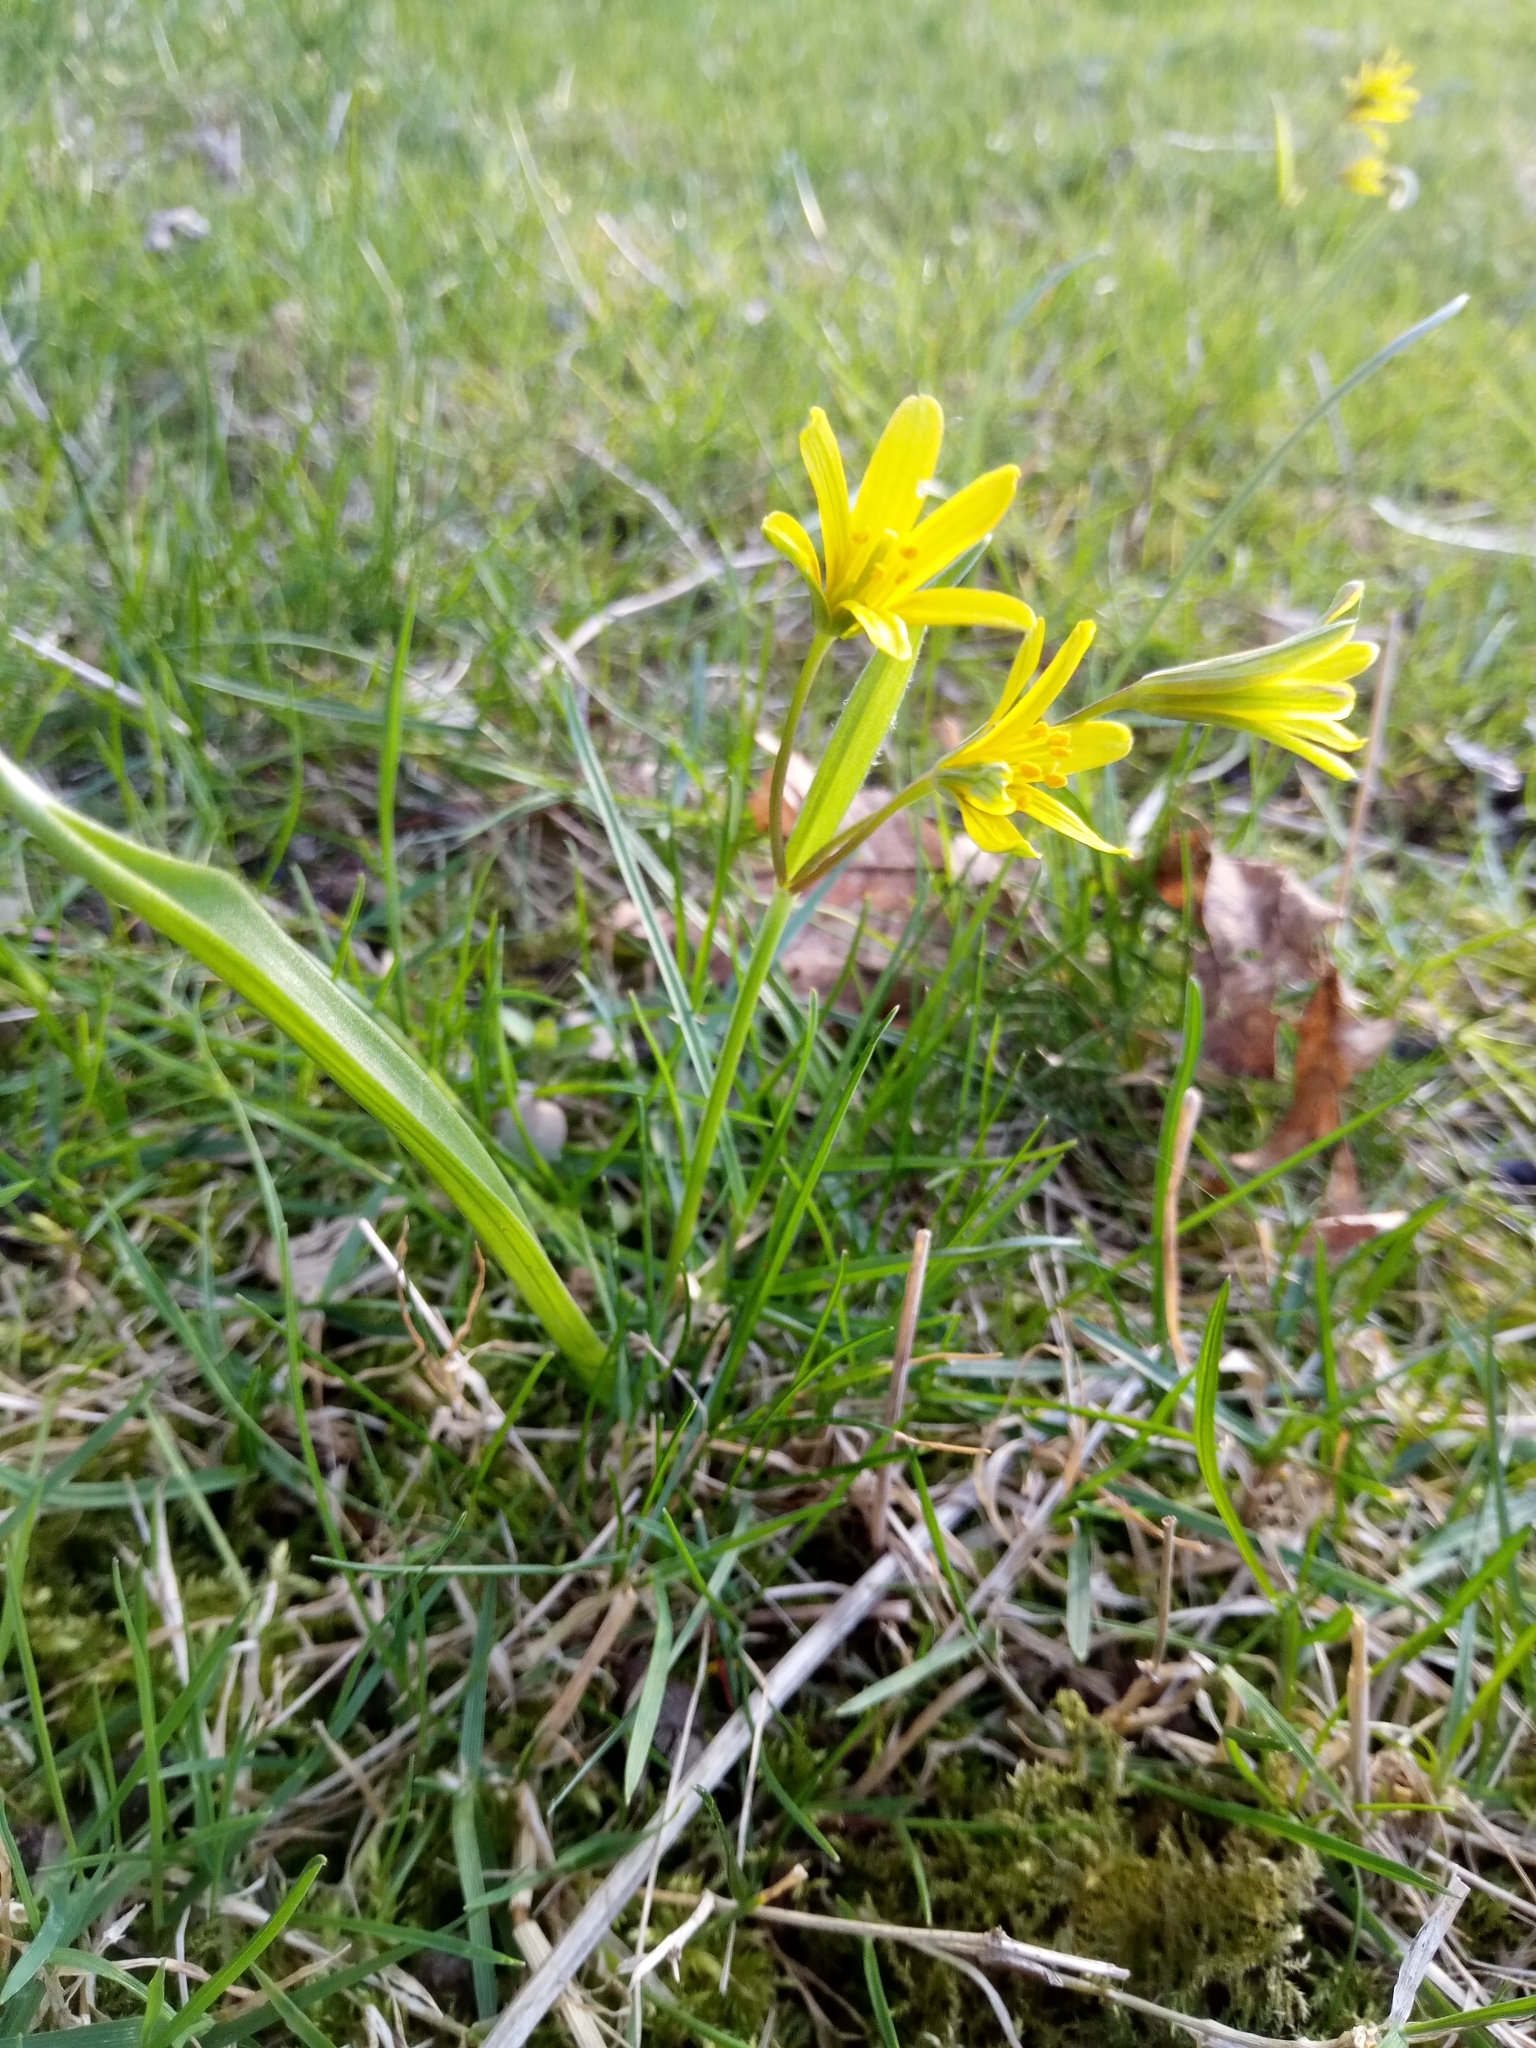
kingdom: Plantae
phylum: Tracheophyta
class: Liliopsida
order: Liliales
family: Liliaceae
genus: Gagea
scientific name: Gagea lutea
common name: Yellow star-of-bethlehem
